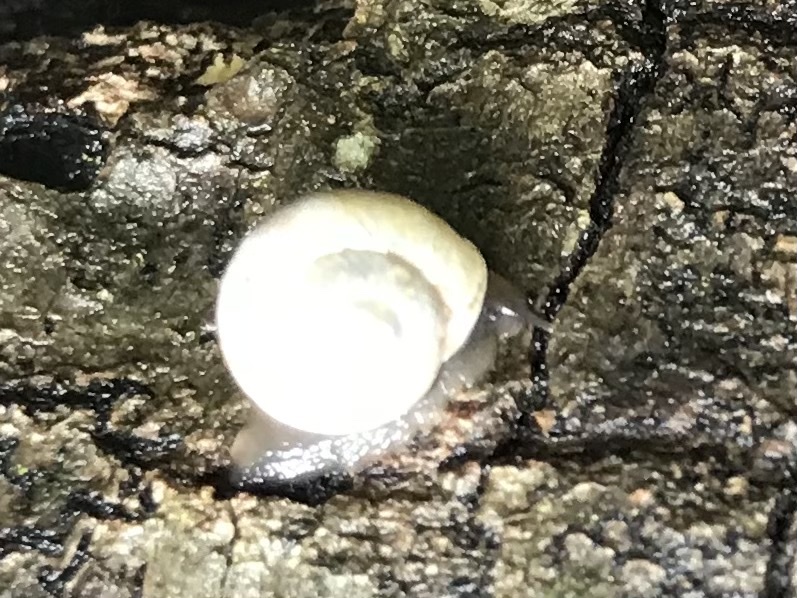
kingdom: Animalia
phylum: Mollusca
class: Gastropoda
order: Cycloneritida
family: Helicinidae
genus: Helicina
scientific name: Helicina orbiculata
